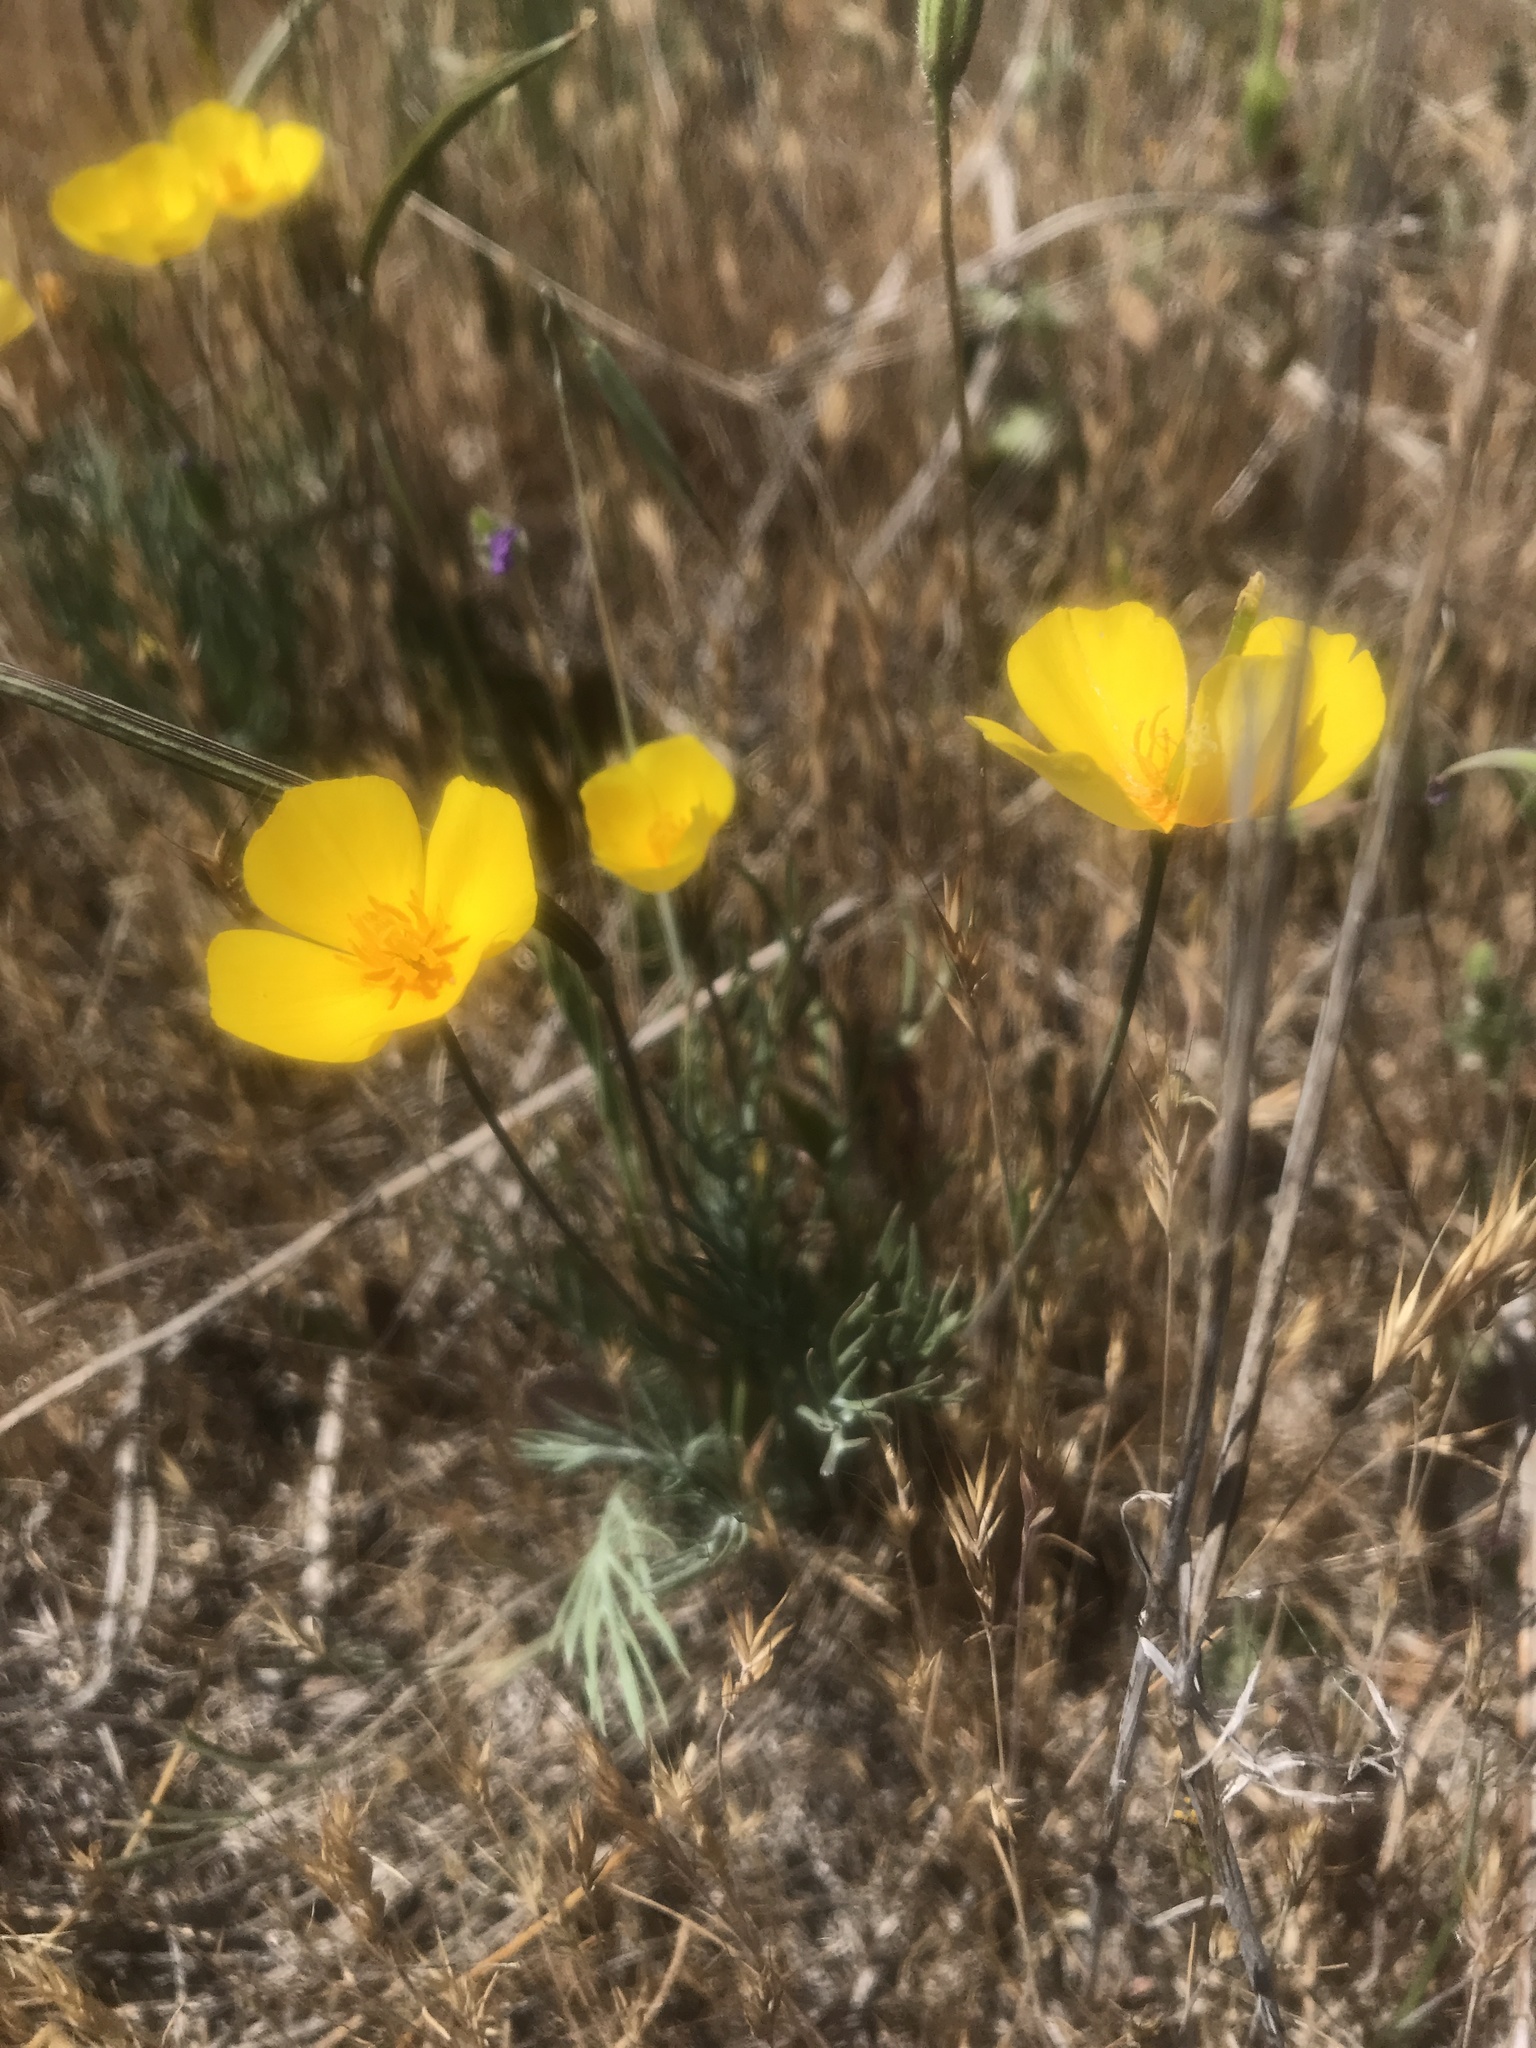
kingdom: Plantae
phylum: Tracheophyta
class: Magnoliopsida
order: Ranunculales
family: Papaveraceae
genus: Eschscholzia
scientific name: Eschscholzia lobbii
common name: Frying-pans
